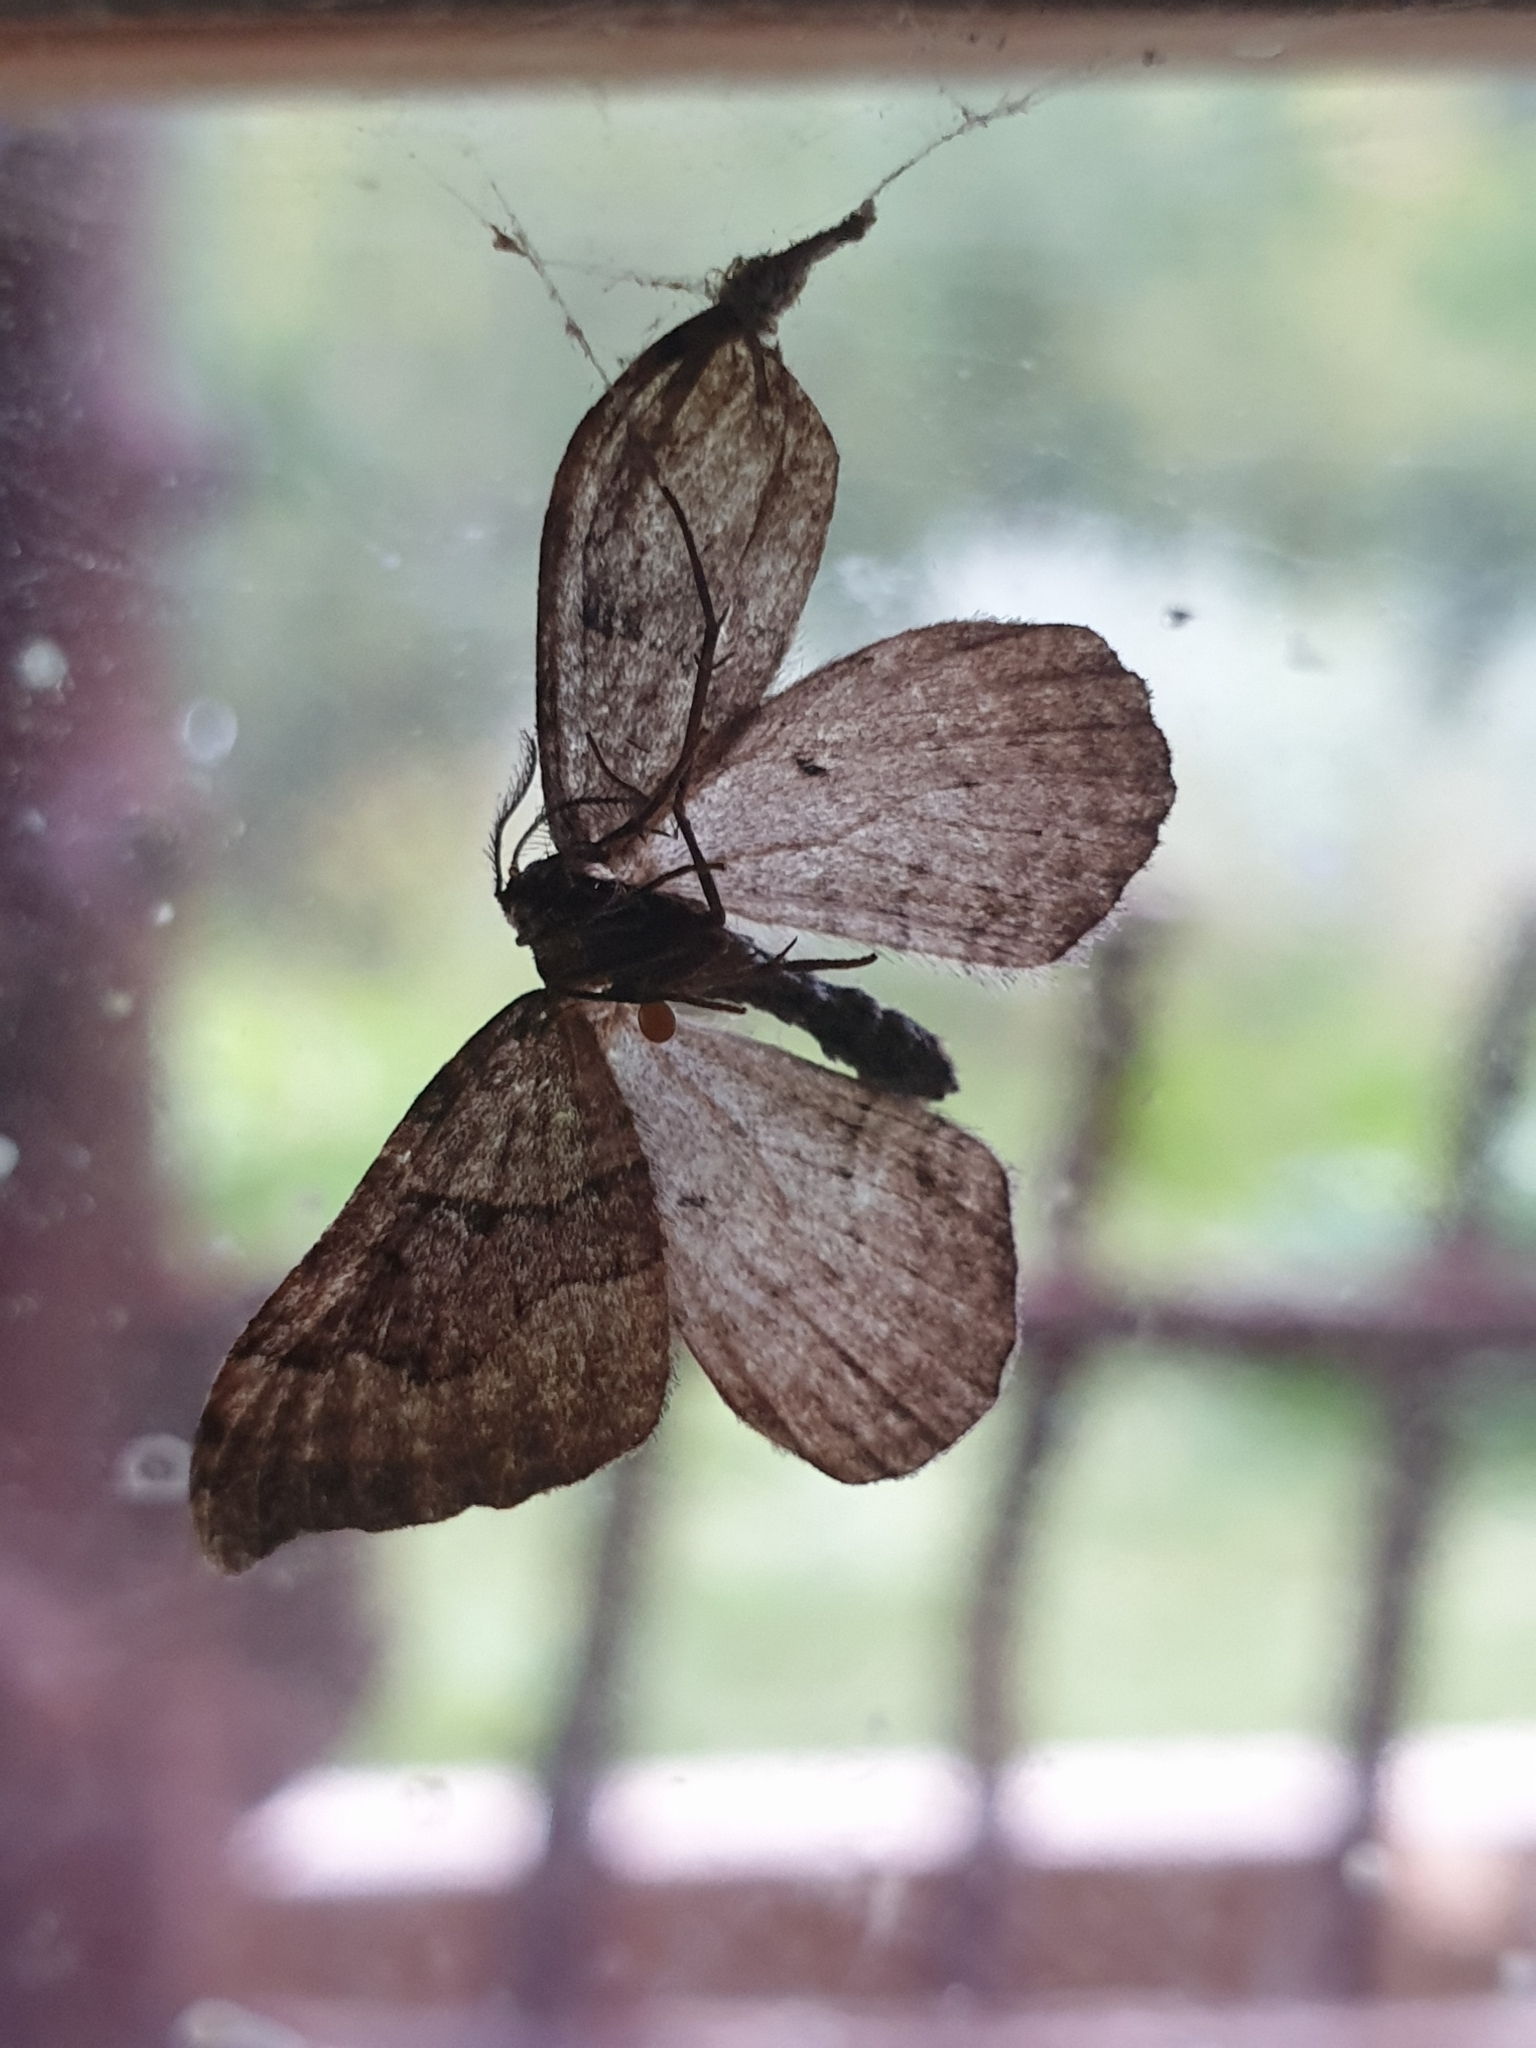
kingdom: Animalia
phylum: Arthropoda
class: Insecta
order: Lepidoptera
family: Geometridae
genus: Xanthorhoe
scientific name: Xanthorhoe decoloraria
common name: Red carpet
